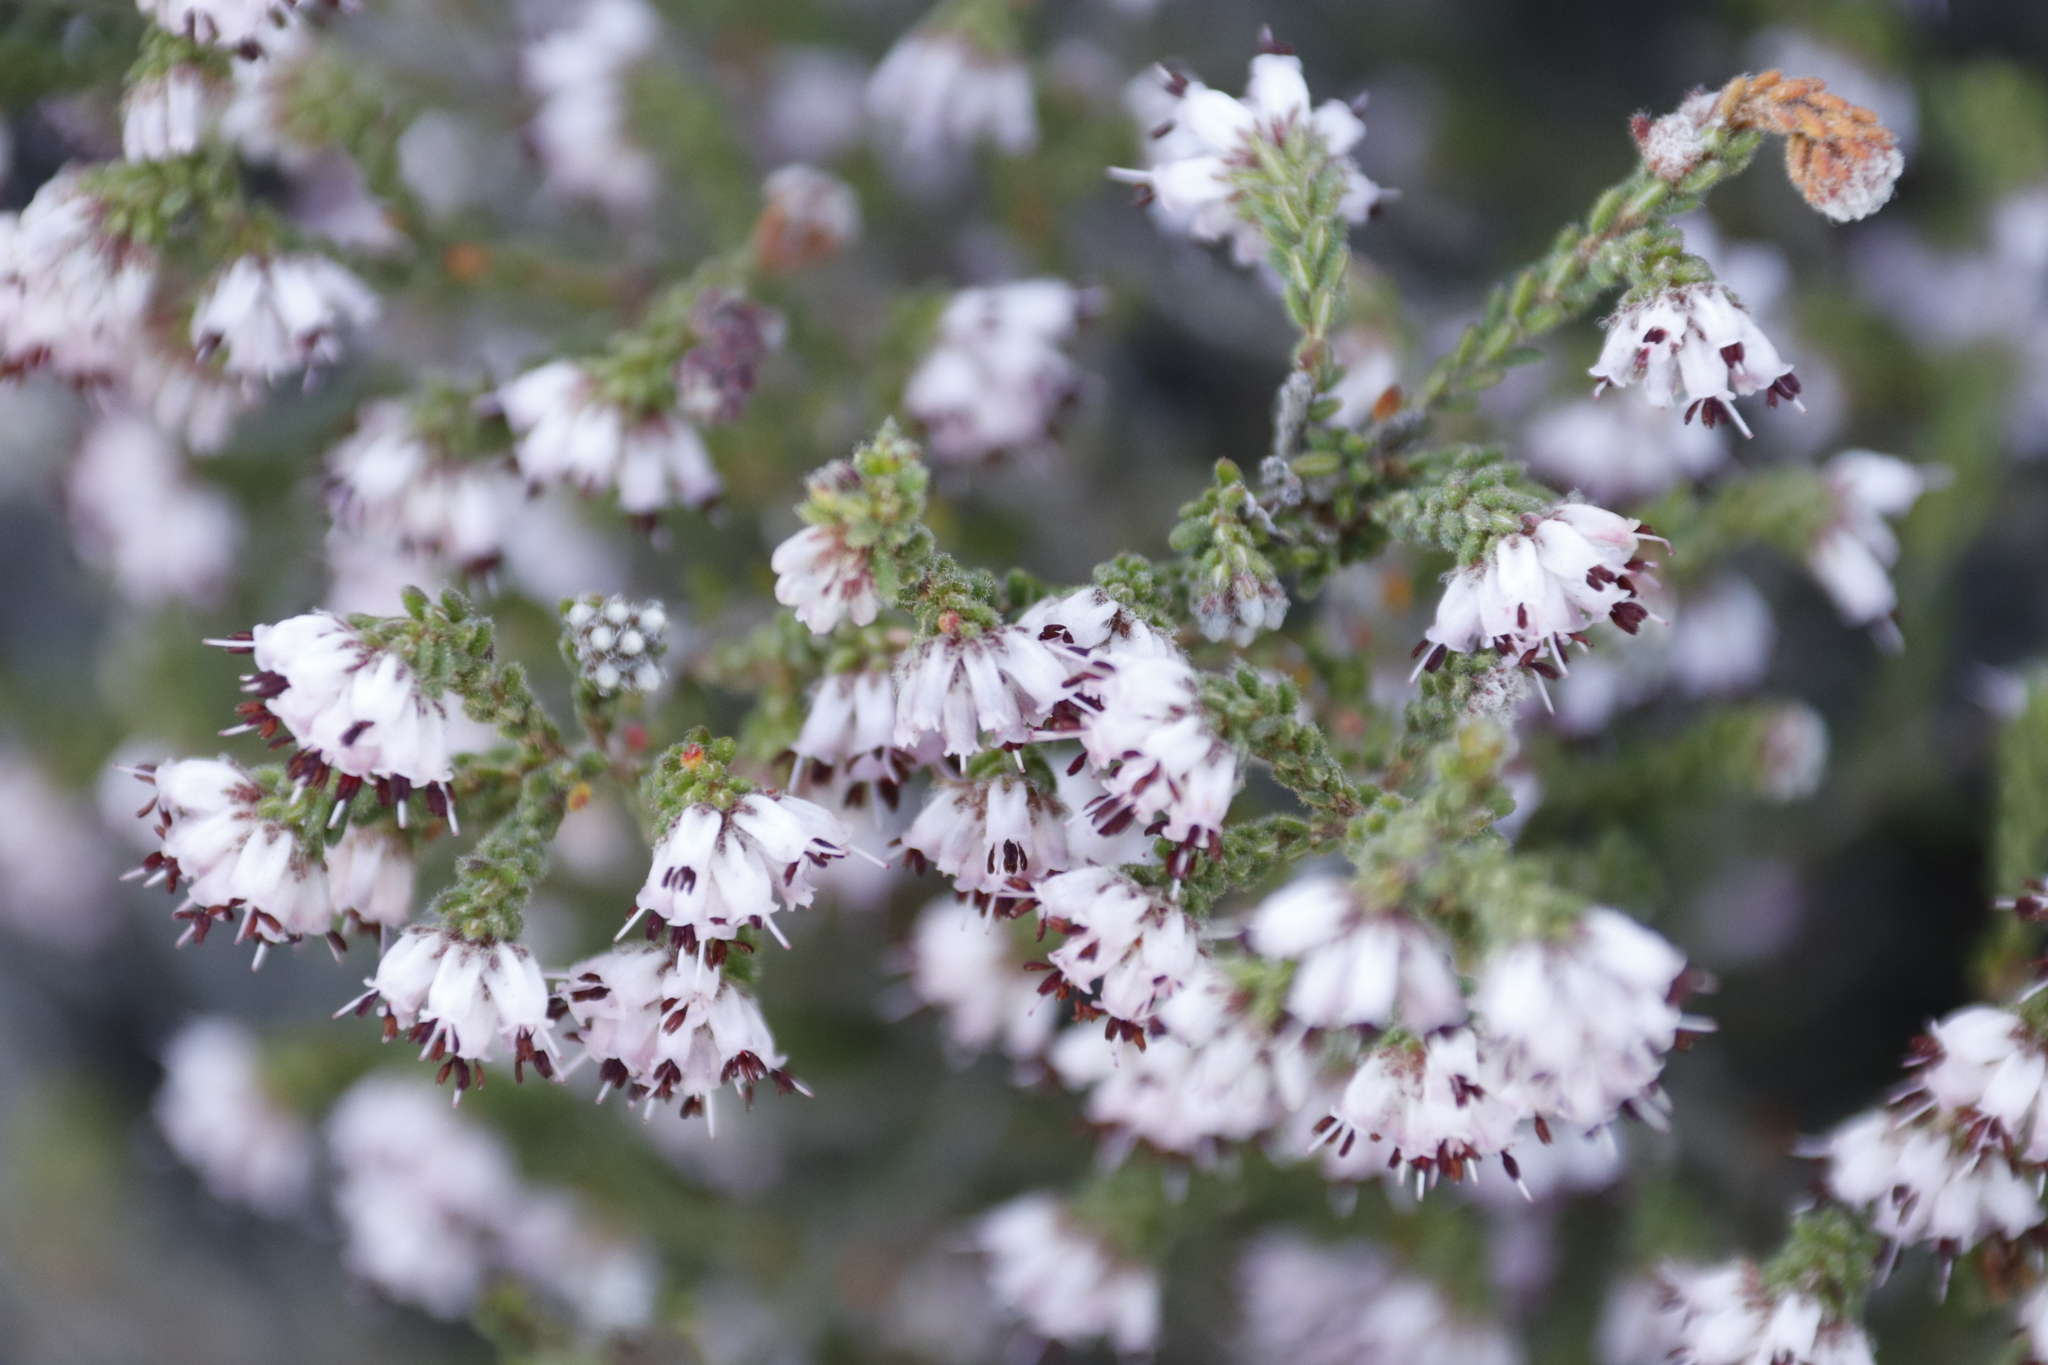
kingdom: Plantae
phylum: Tracheophyta
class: Magnoliopsida
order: Ericales
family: Ericaceae
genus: Erica
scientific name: Erica nudiflora
